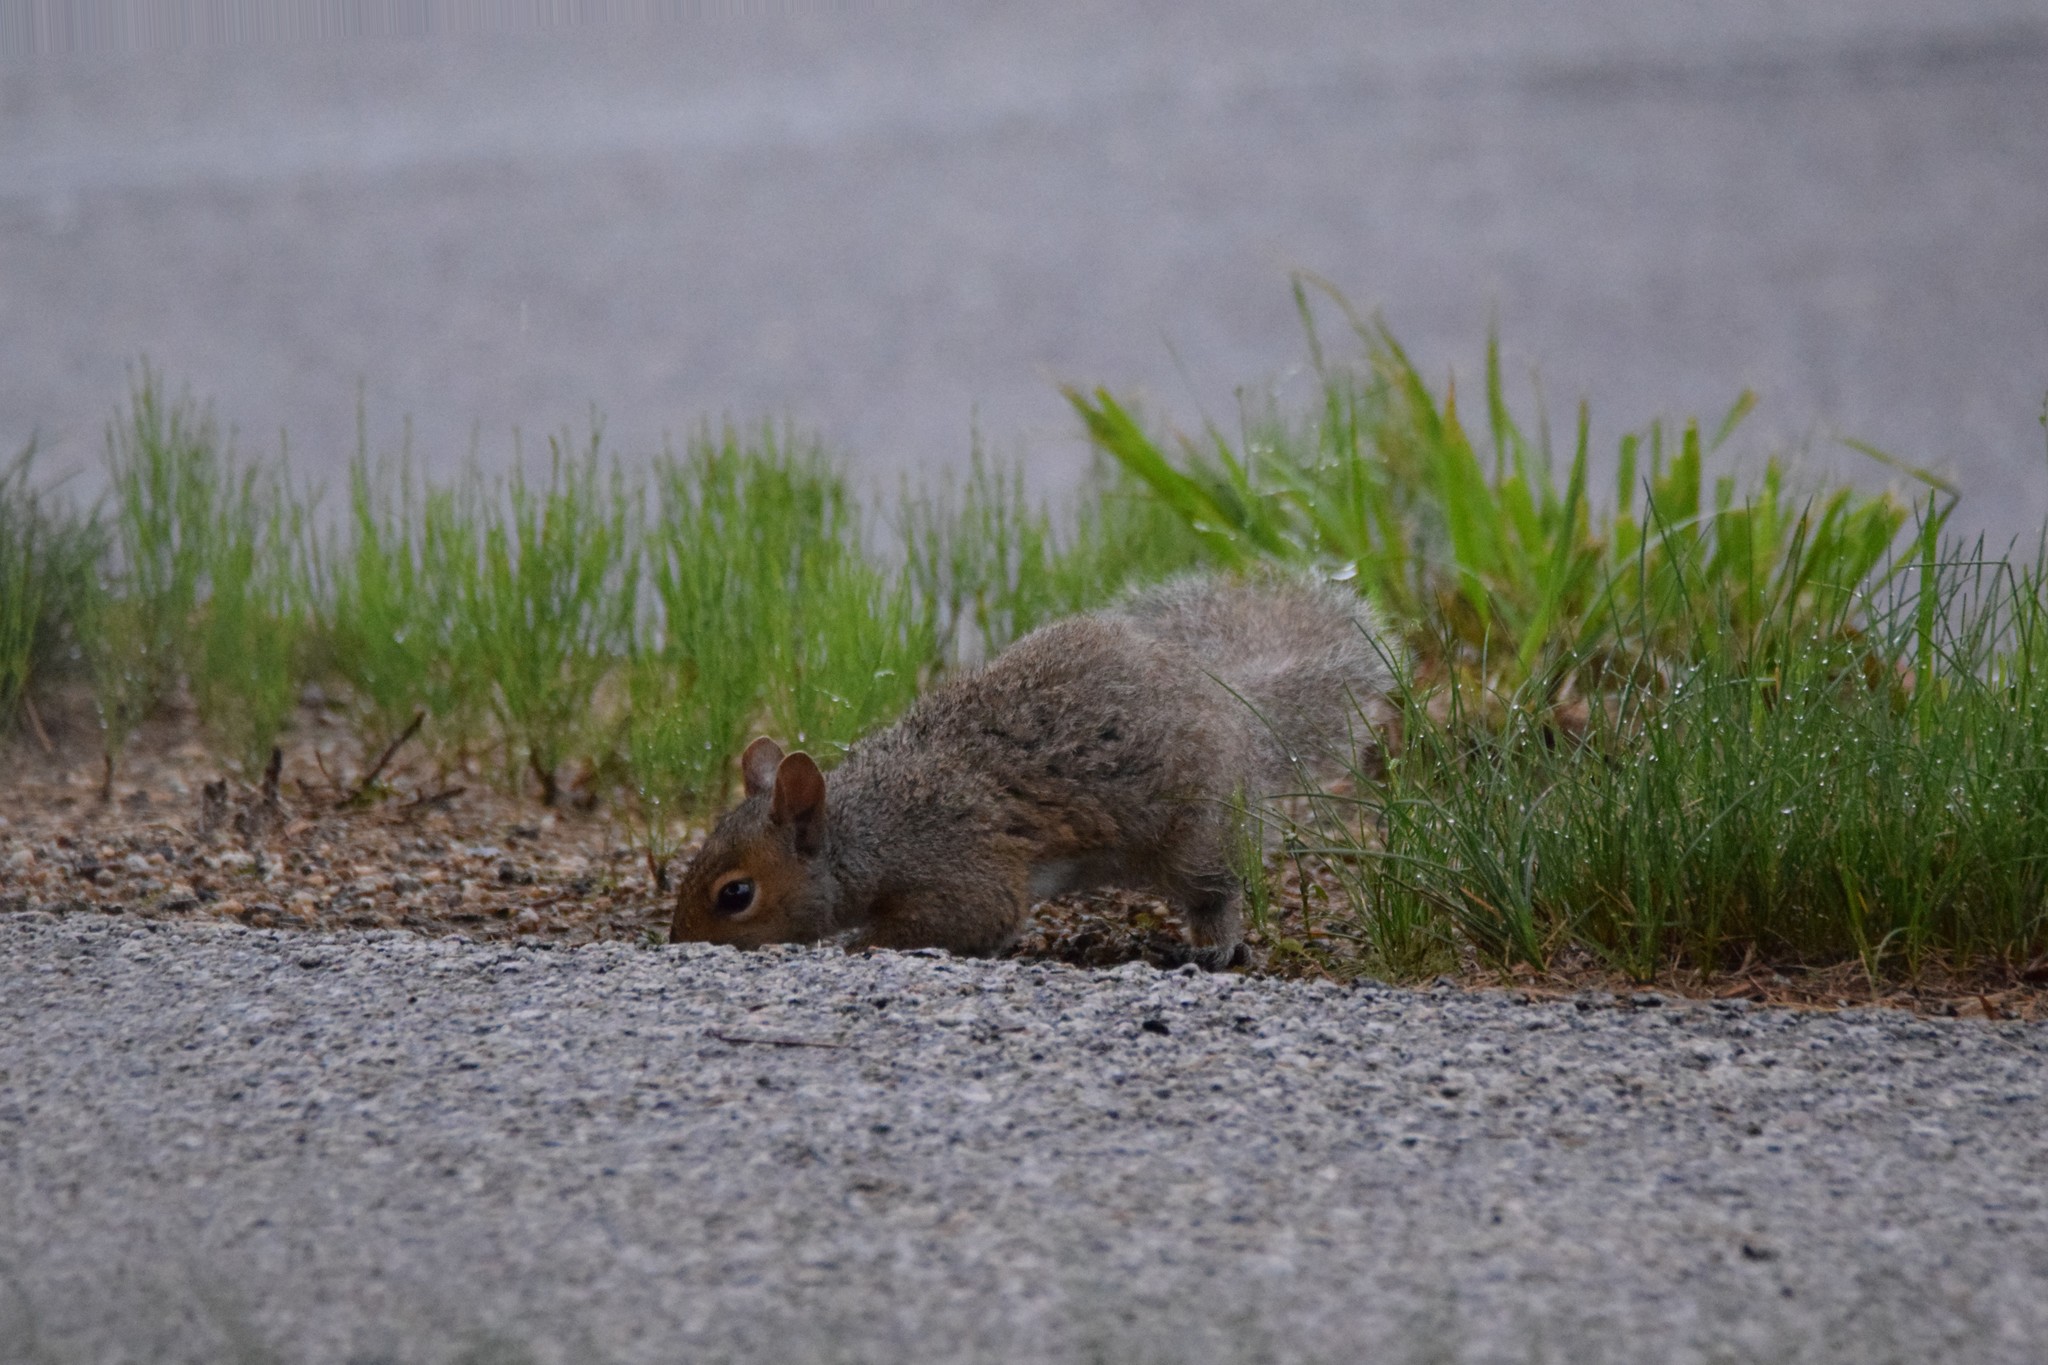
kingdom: Animalia
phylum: Chordata
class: Mammalia
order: Rodentia
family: Sciuridae
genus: Sciurus
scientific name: Sciurus carolinensis
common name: Eastern gray squirrel
